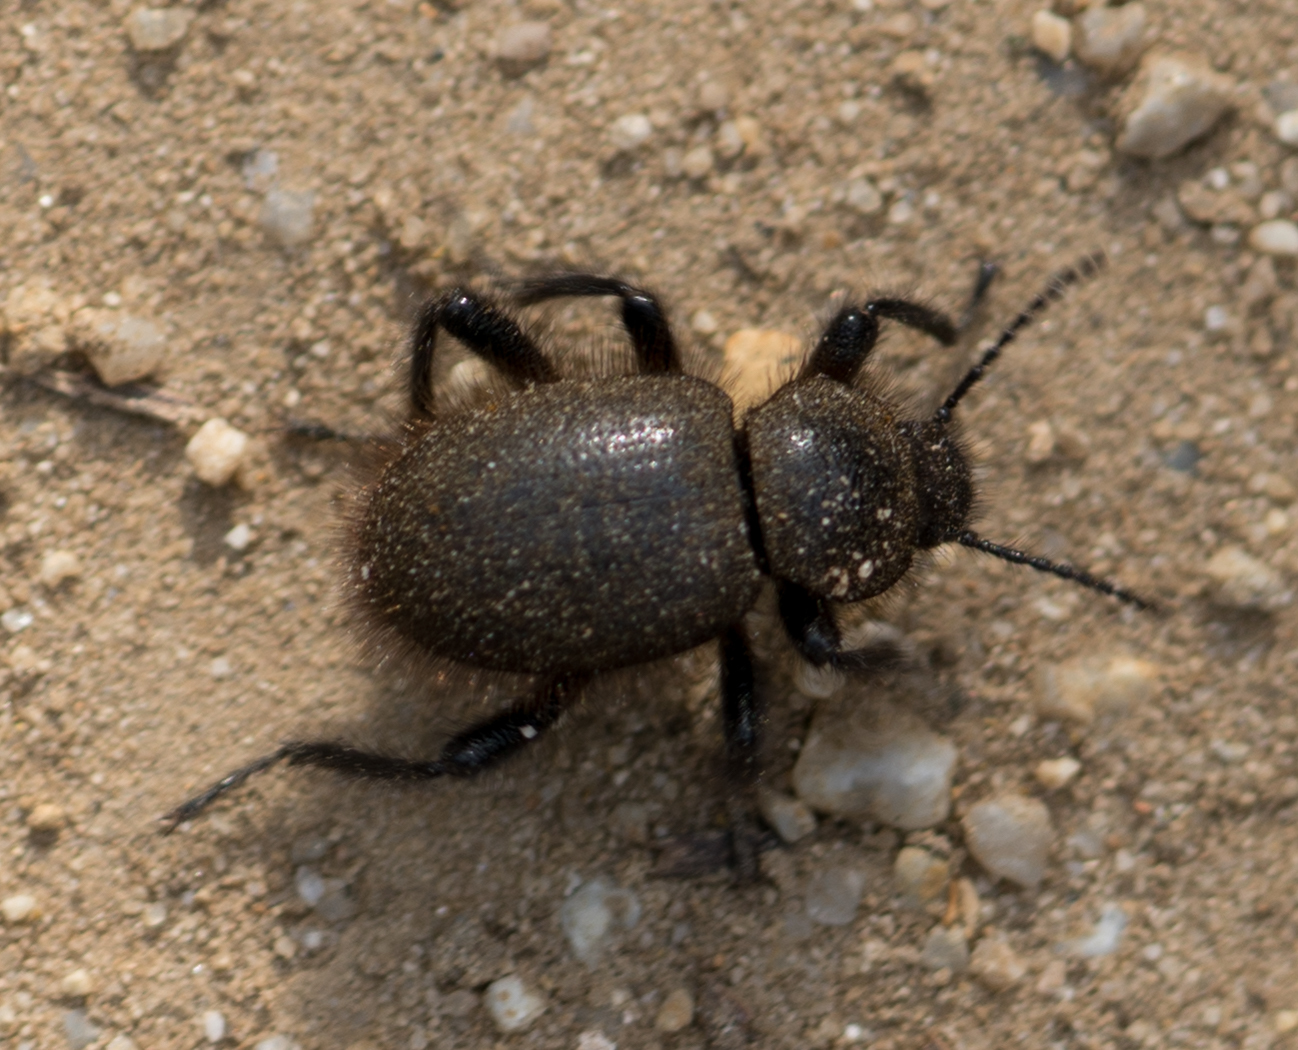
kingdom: Animalia
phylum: Arthropoda
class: Insecta
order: Coleoptera
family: Tenebrionidae
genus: Eleodes
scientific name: Eleodes osculans
